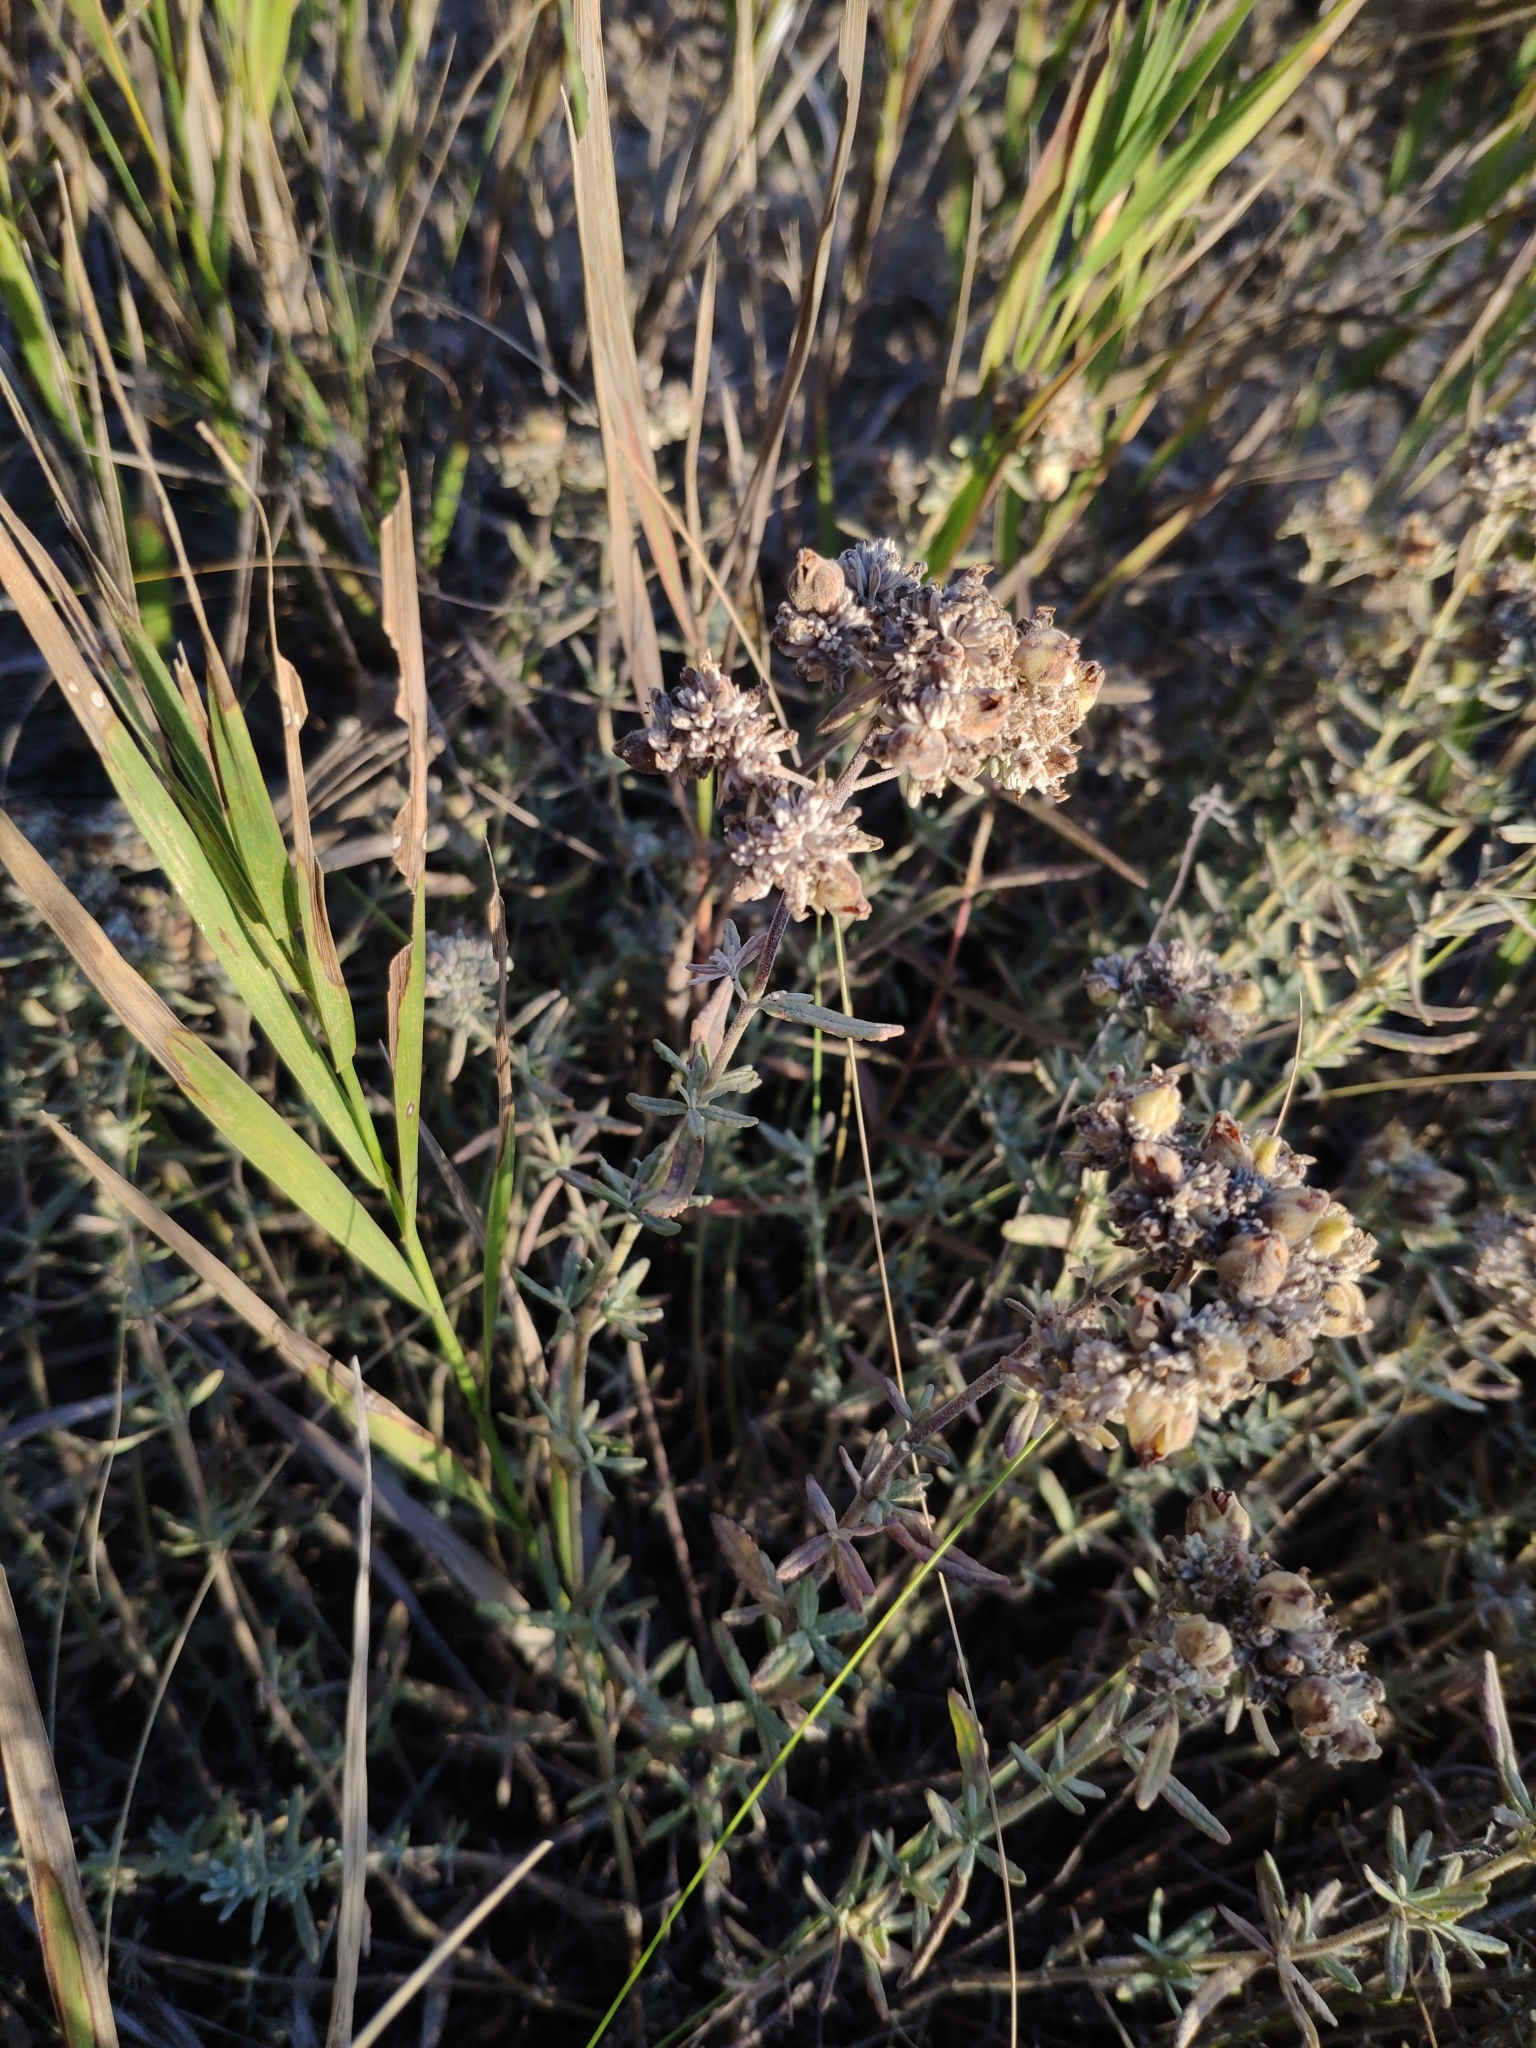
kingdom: Plantae
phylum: Tracheophyta
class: Magnoliopsida
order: Lamiales
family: Lamiaceae
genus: Teucrium
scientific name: Teucrium polium
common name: Poley
